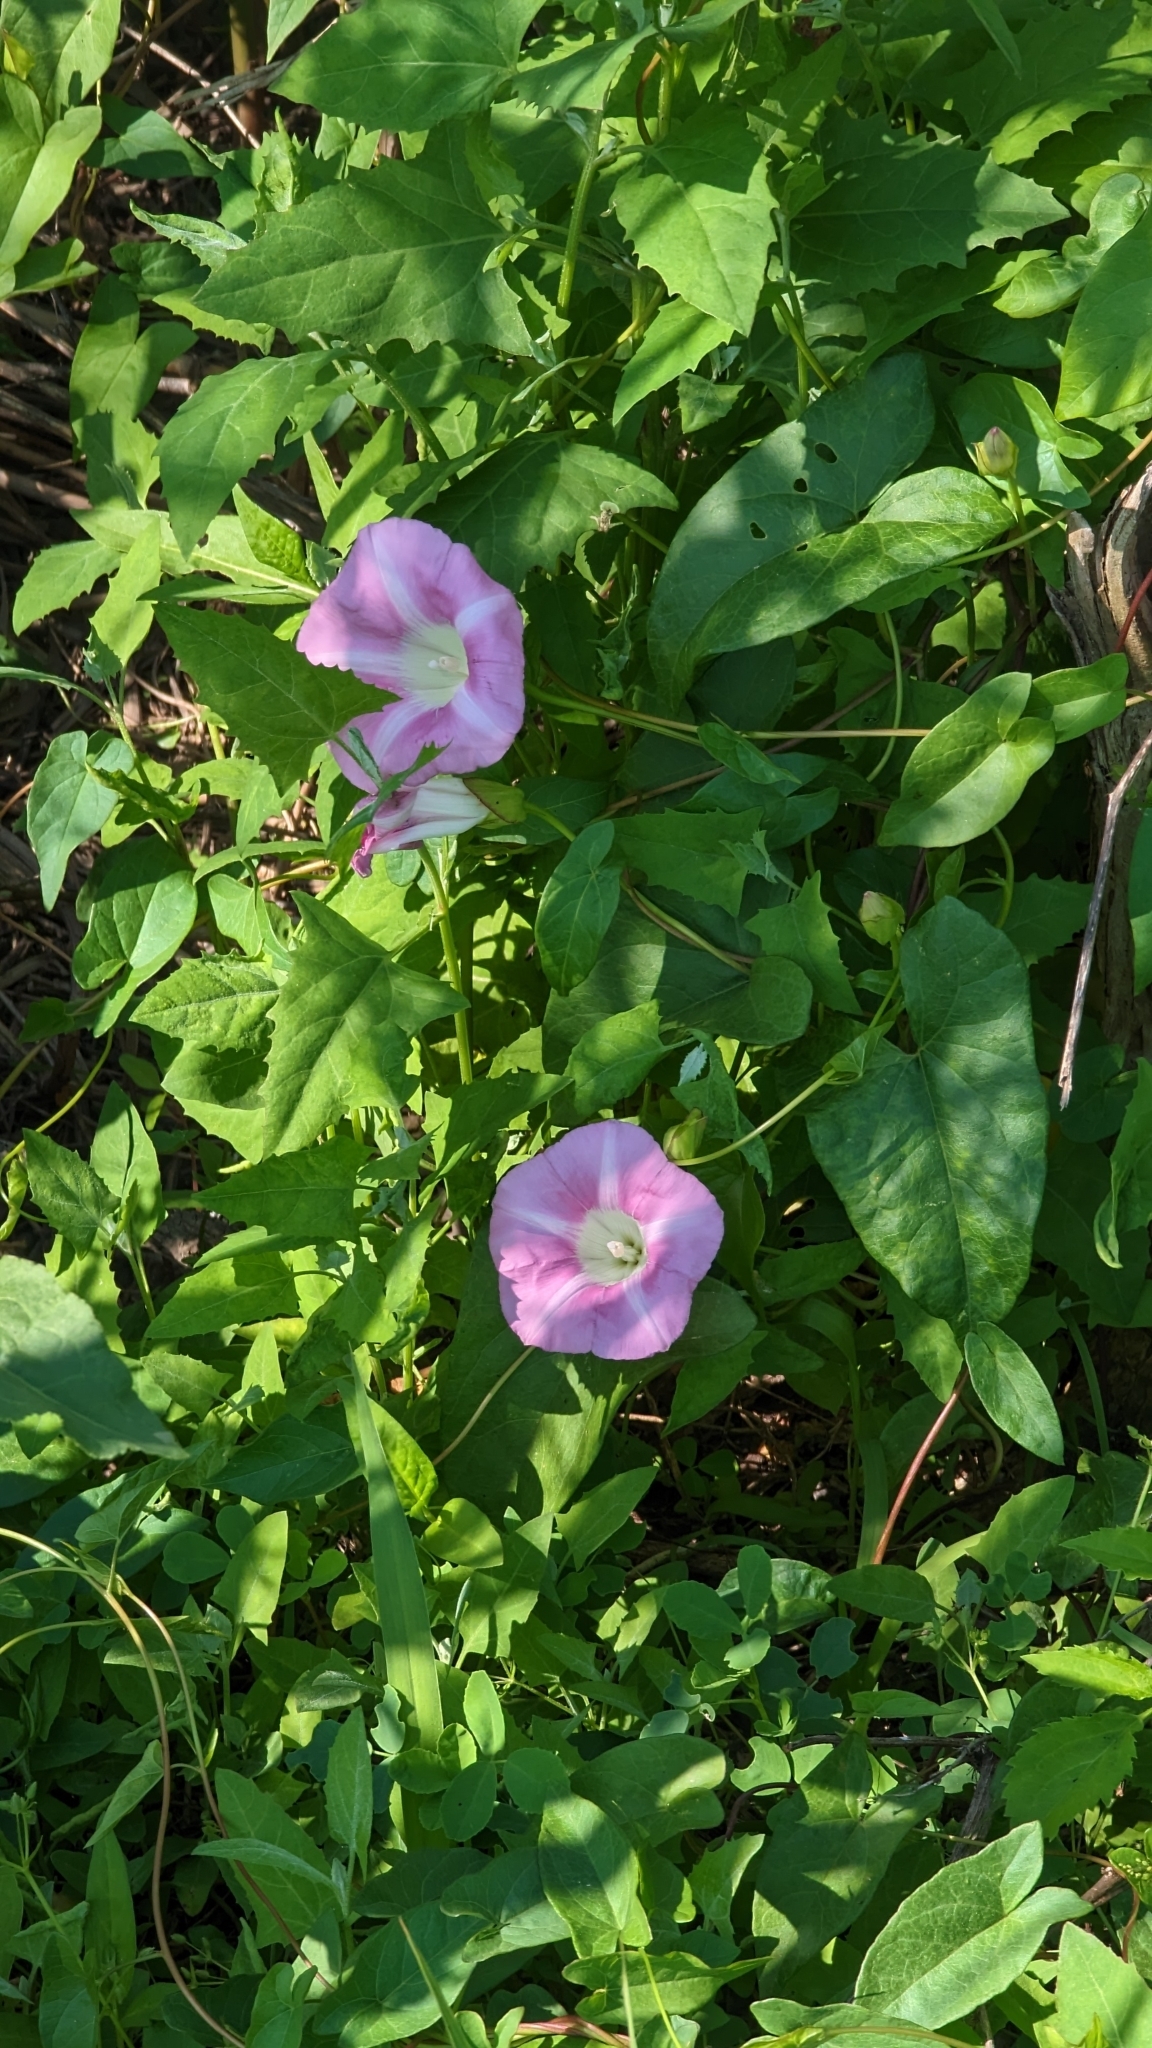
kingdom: Plantae
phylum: Tracheophyta
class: Magnoliopsida
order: Solanales
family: Convolvulaceae
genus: Calystegia
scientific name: Calystegia sepium
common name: Hedge bindweed
